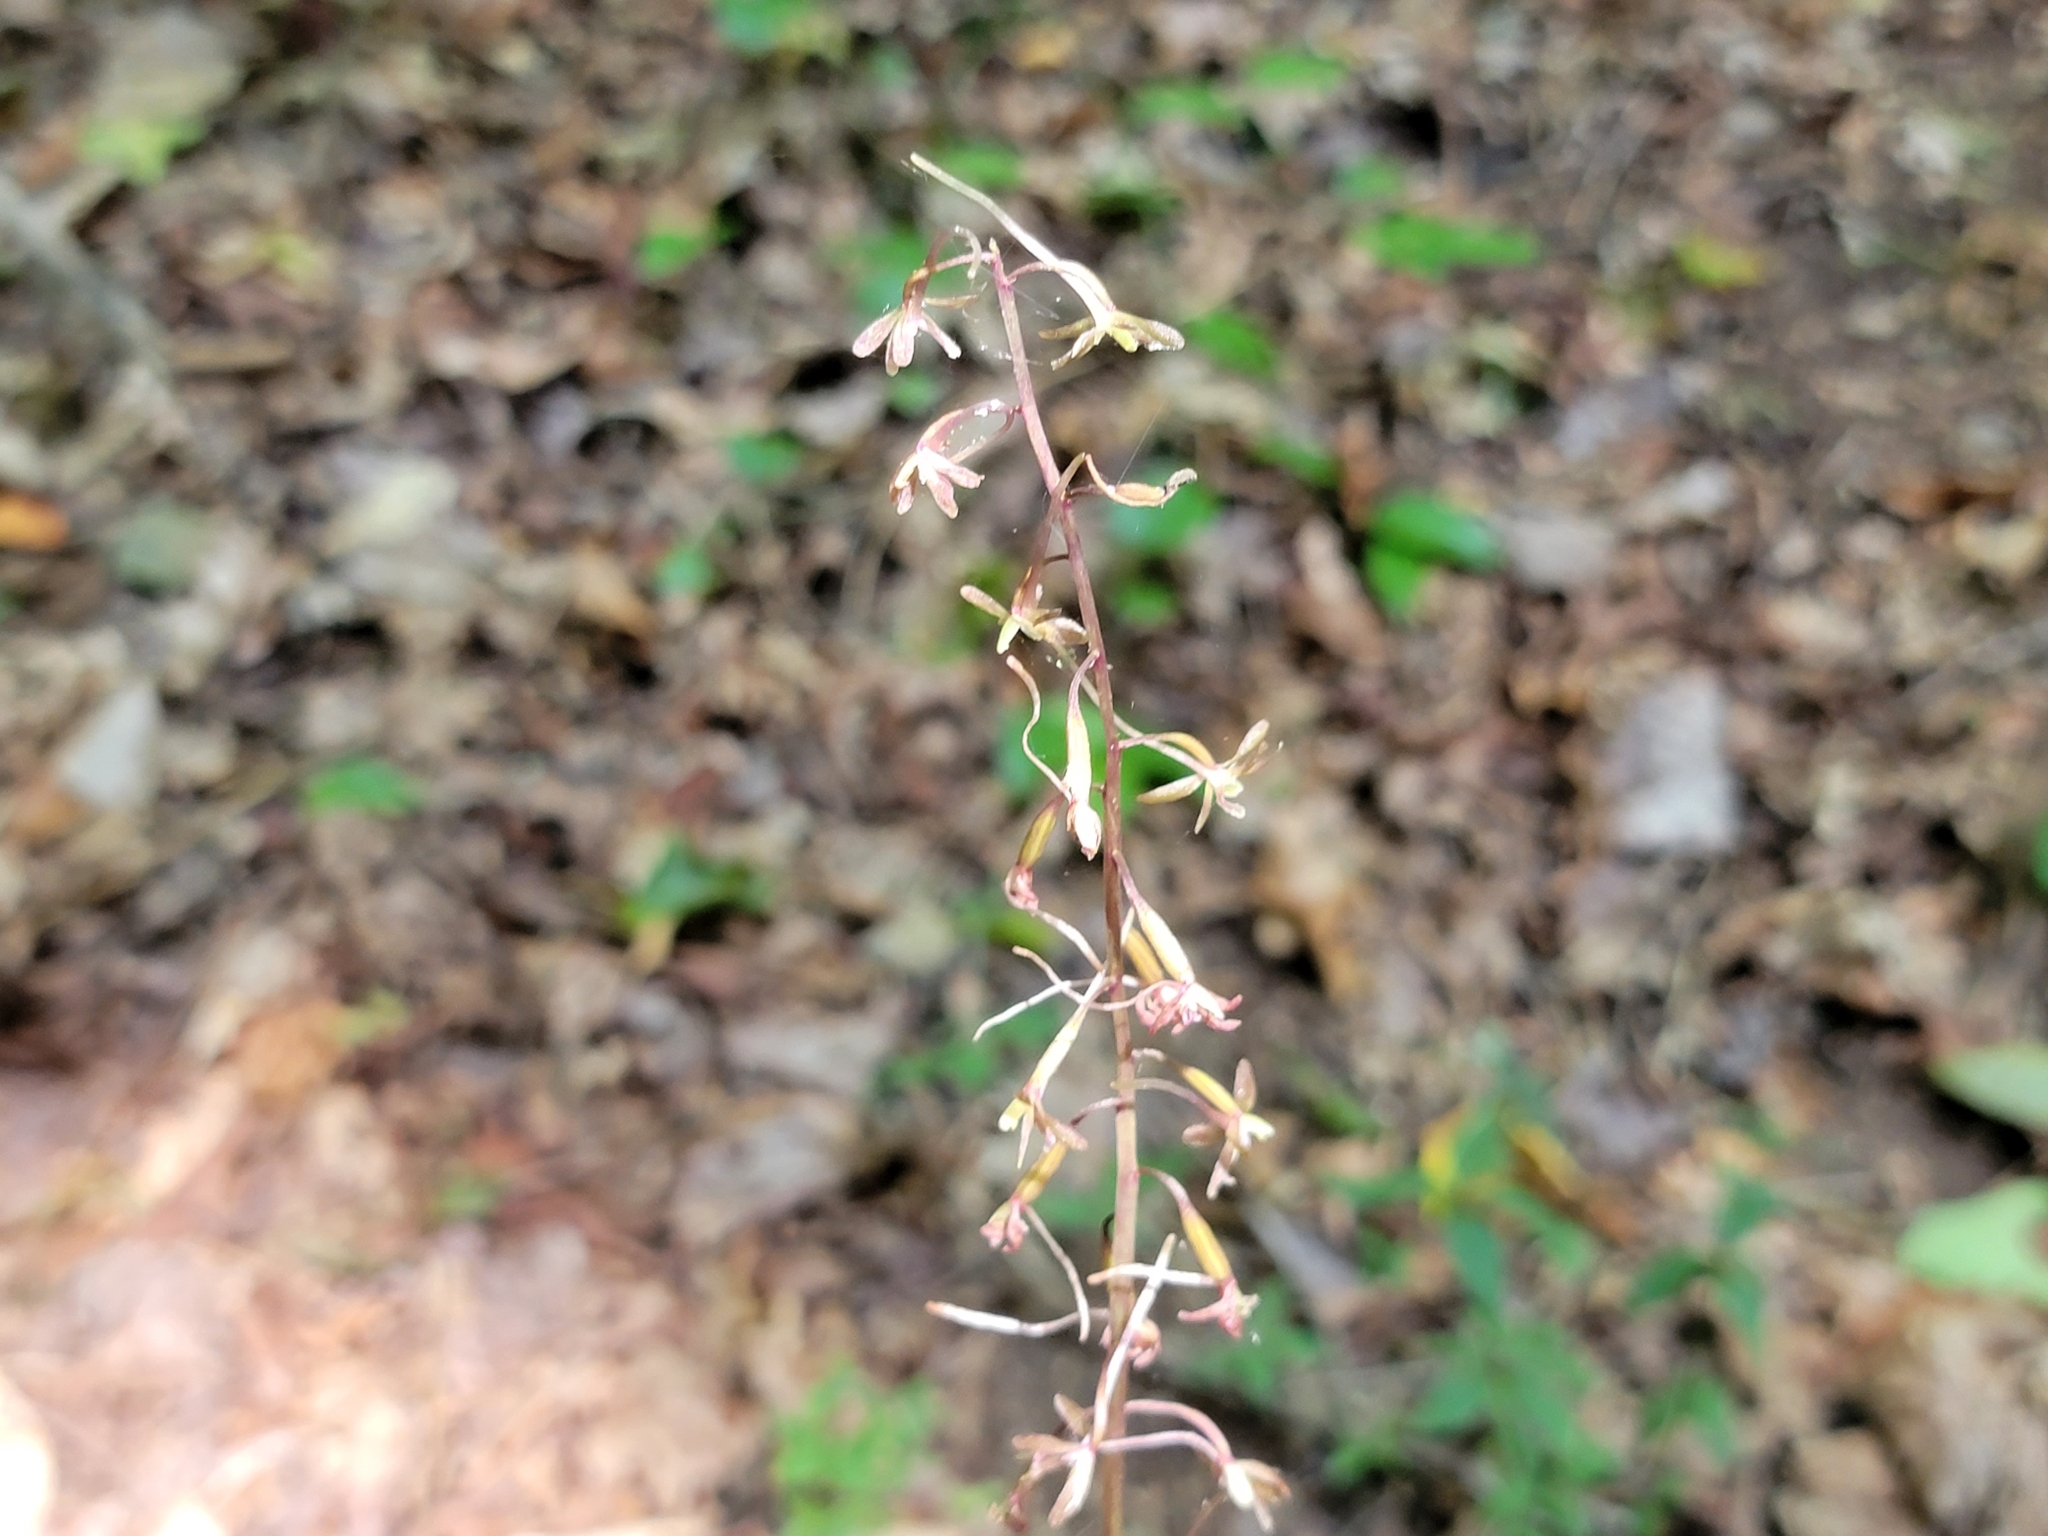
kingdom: Plantae
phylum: Tracheophyta
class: Liliopsida
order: Asparagales
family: Orchidaceae
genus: Tipularia
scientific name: Tipularia discolor
